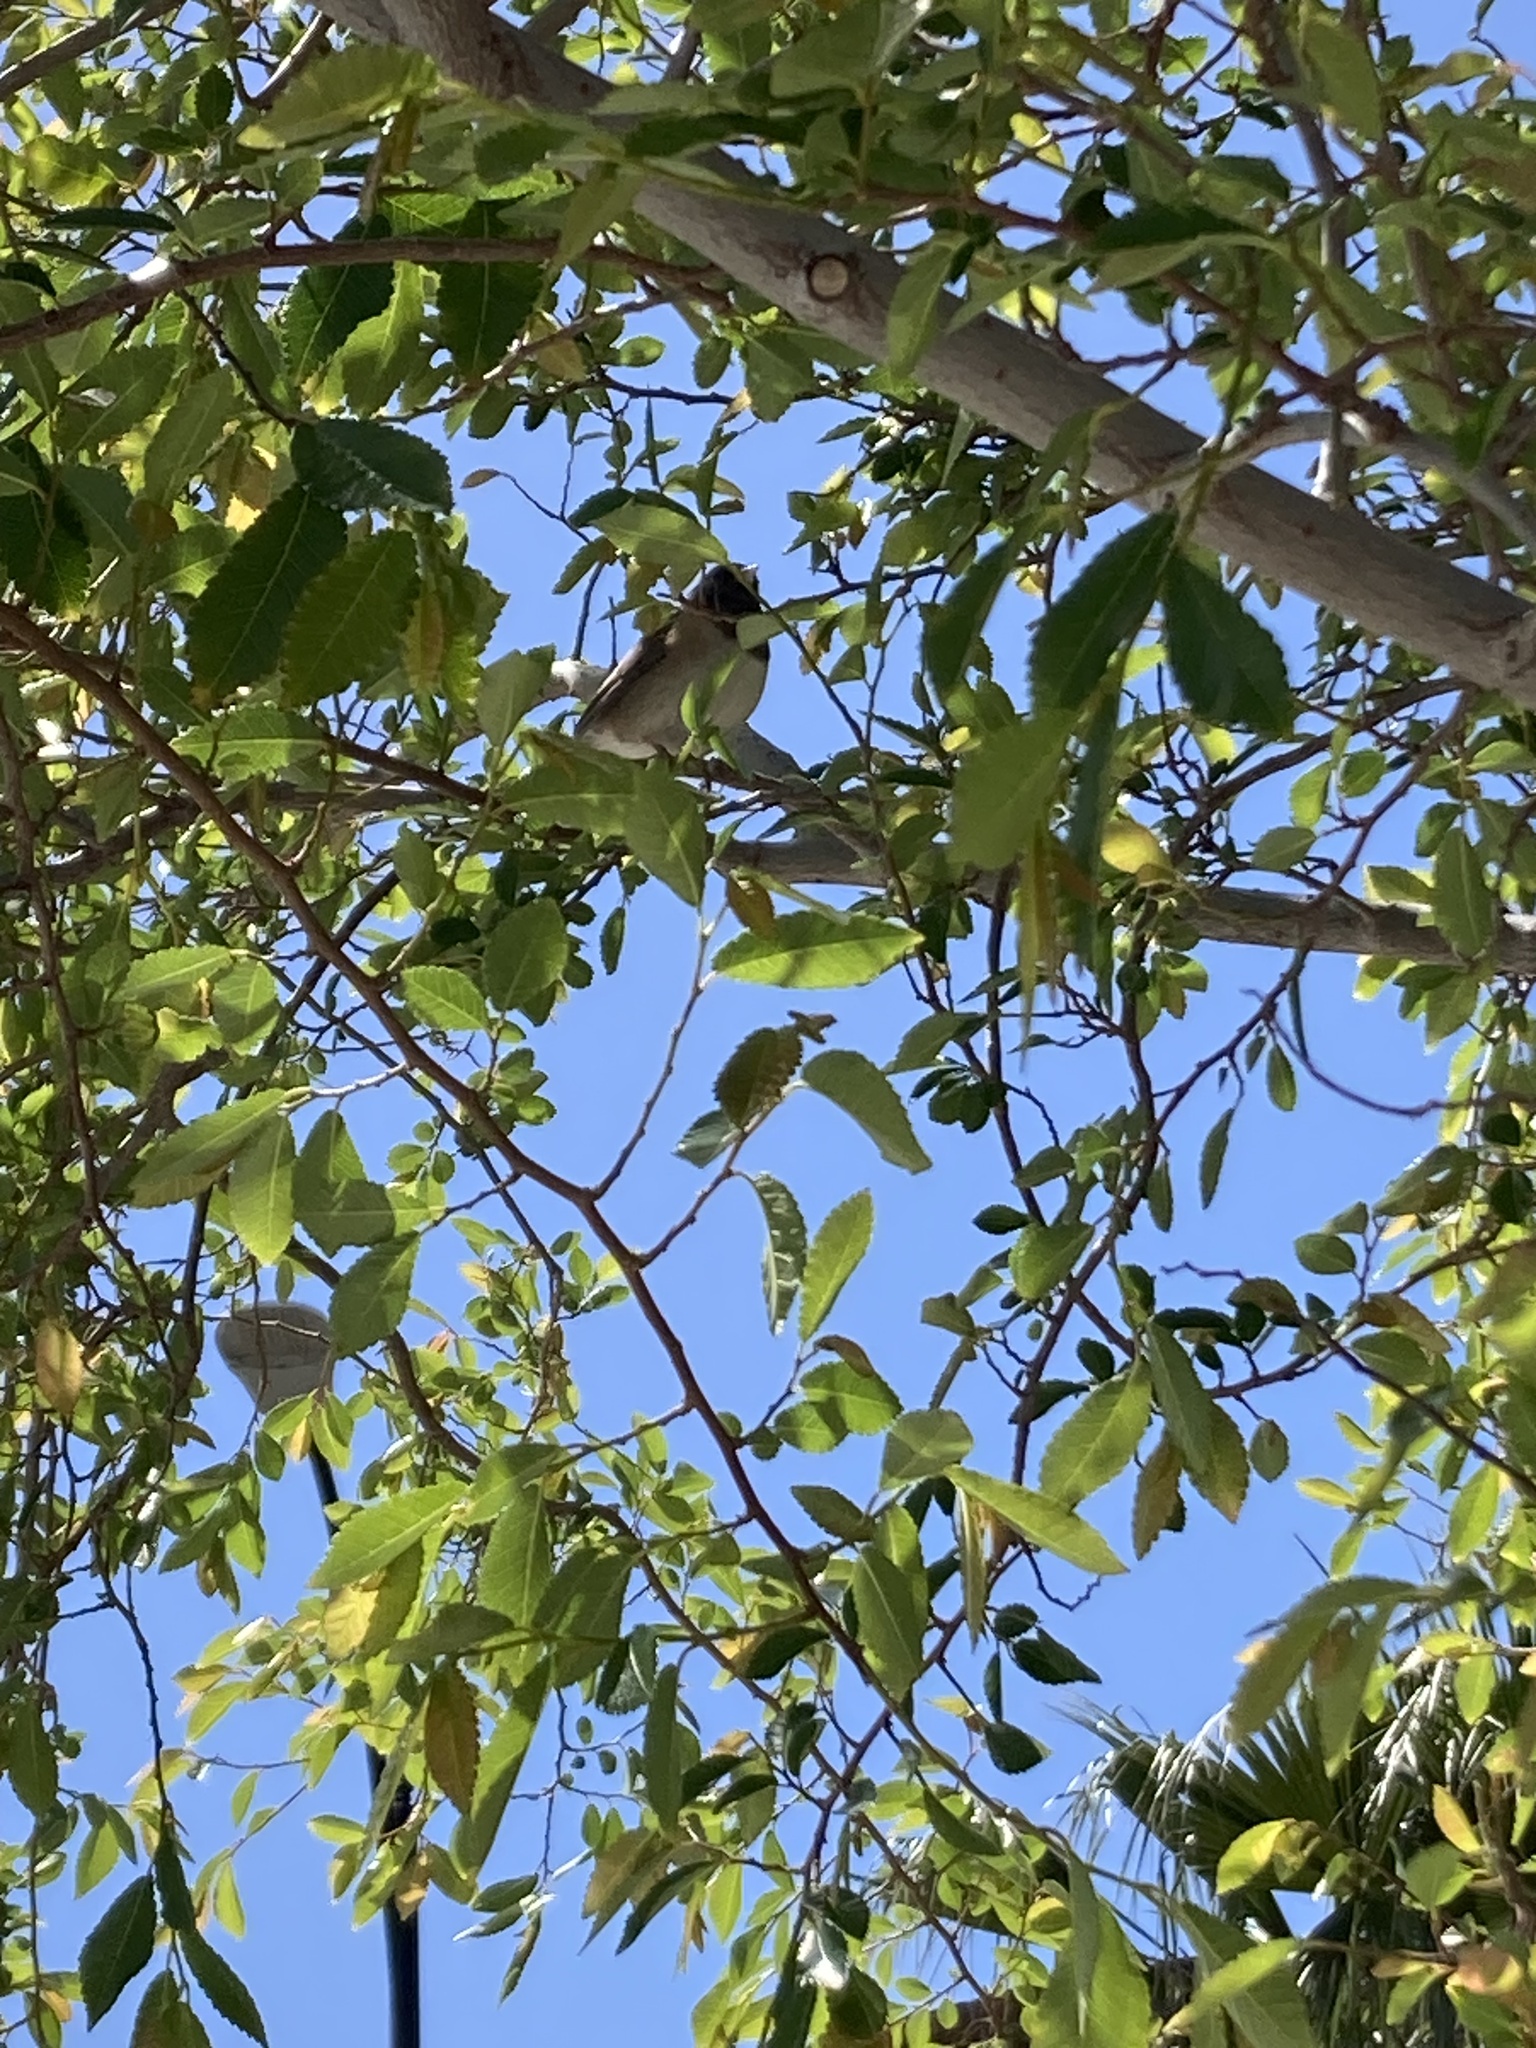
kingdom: Animalia
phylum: Chordata
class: Aves
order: Passeriformes
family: Passerellidae
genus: Junco
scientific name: Junco hyemalis
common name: Dark-eyed junco
